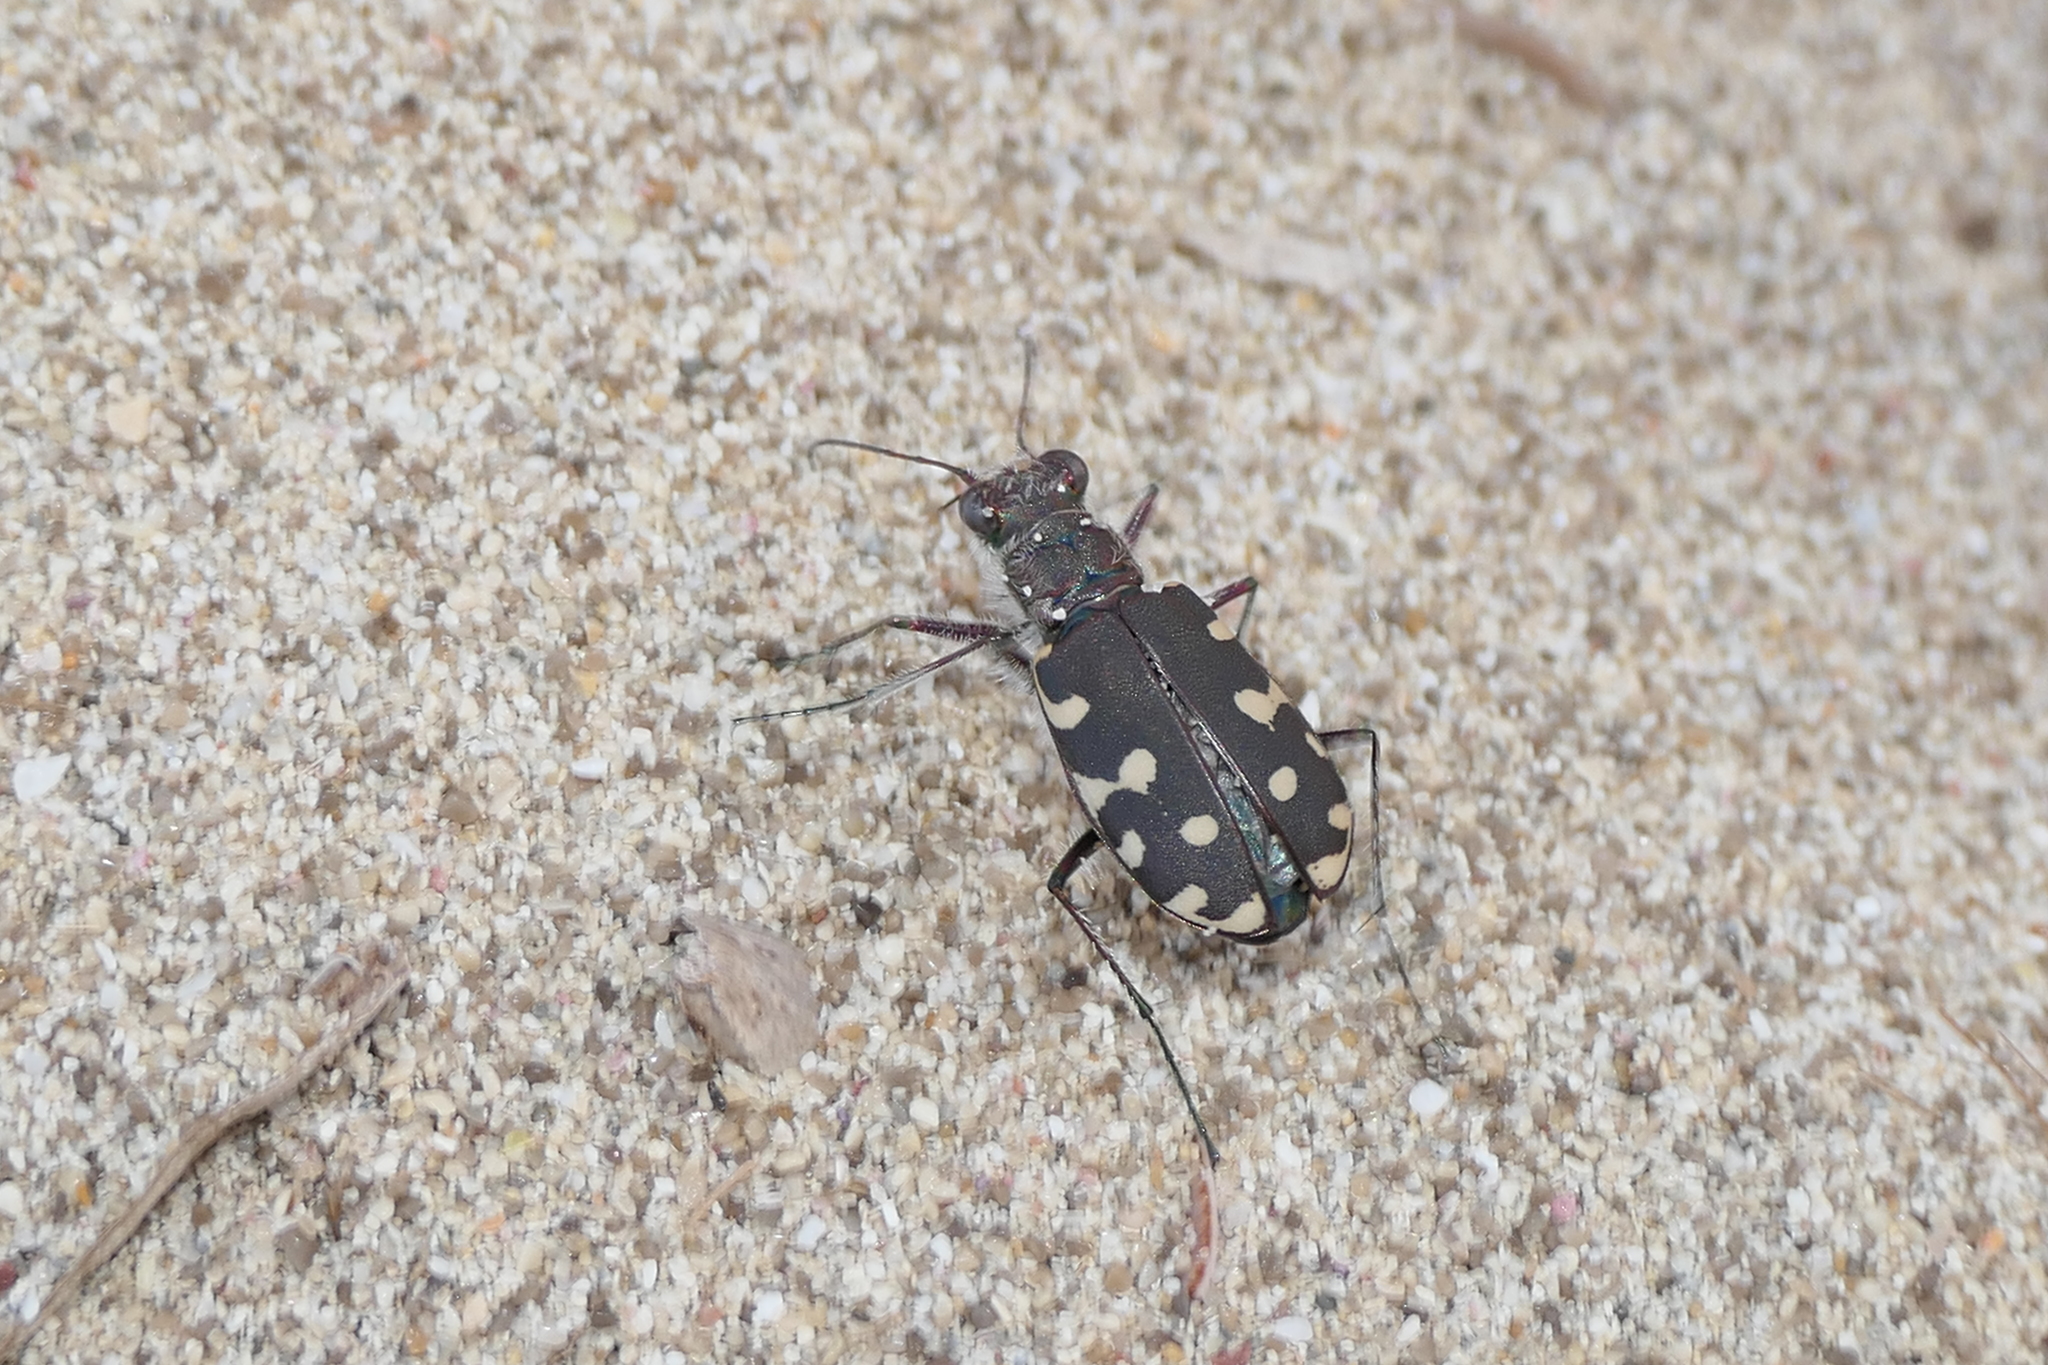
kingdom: Animalia
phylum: Arthropoda
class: Insecta
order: Coleoptera
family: Carabidae
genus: Cicindela
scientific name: Cicindela littoralis
